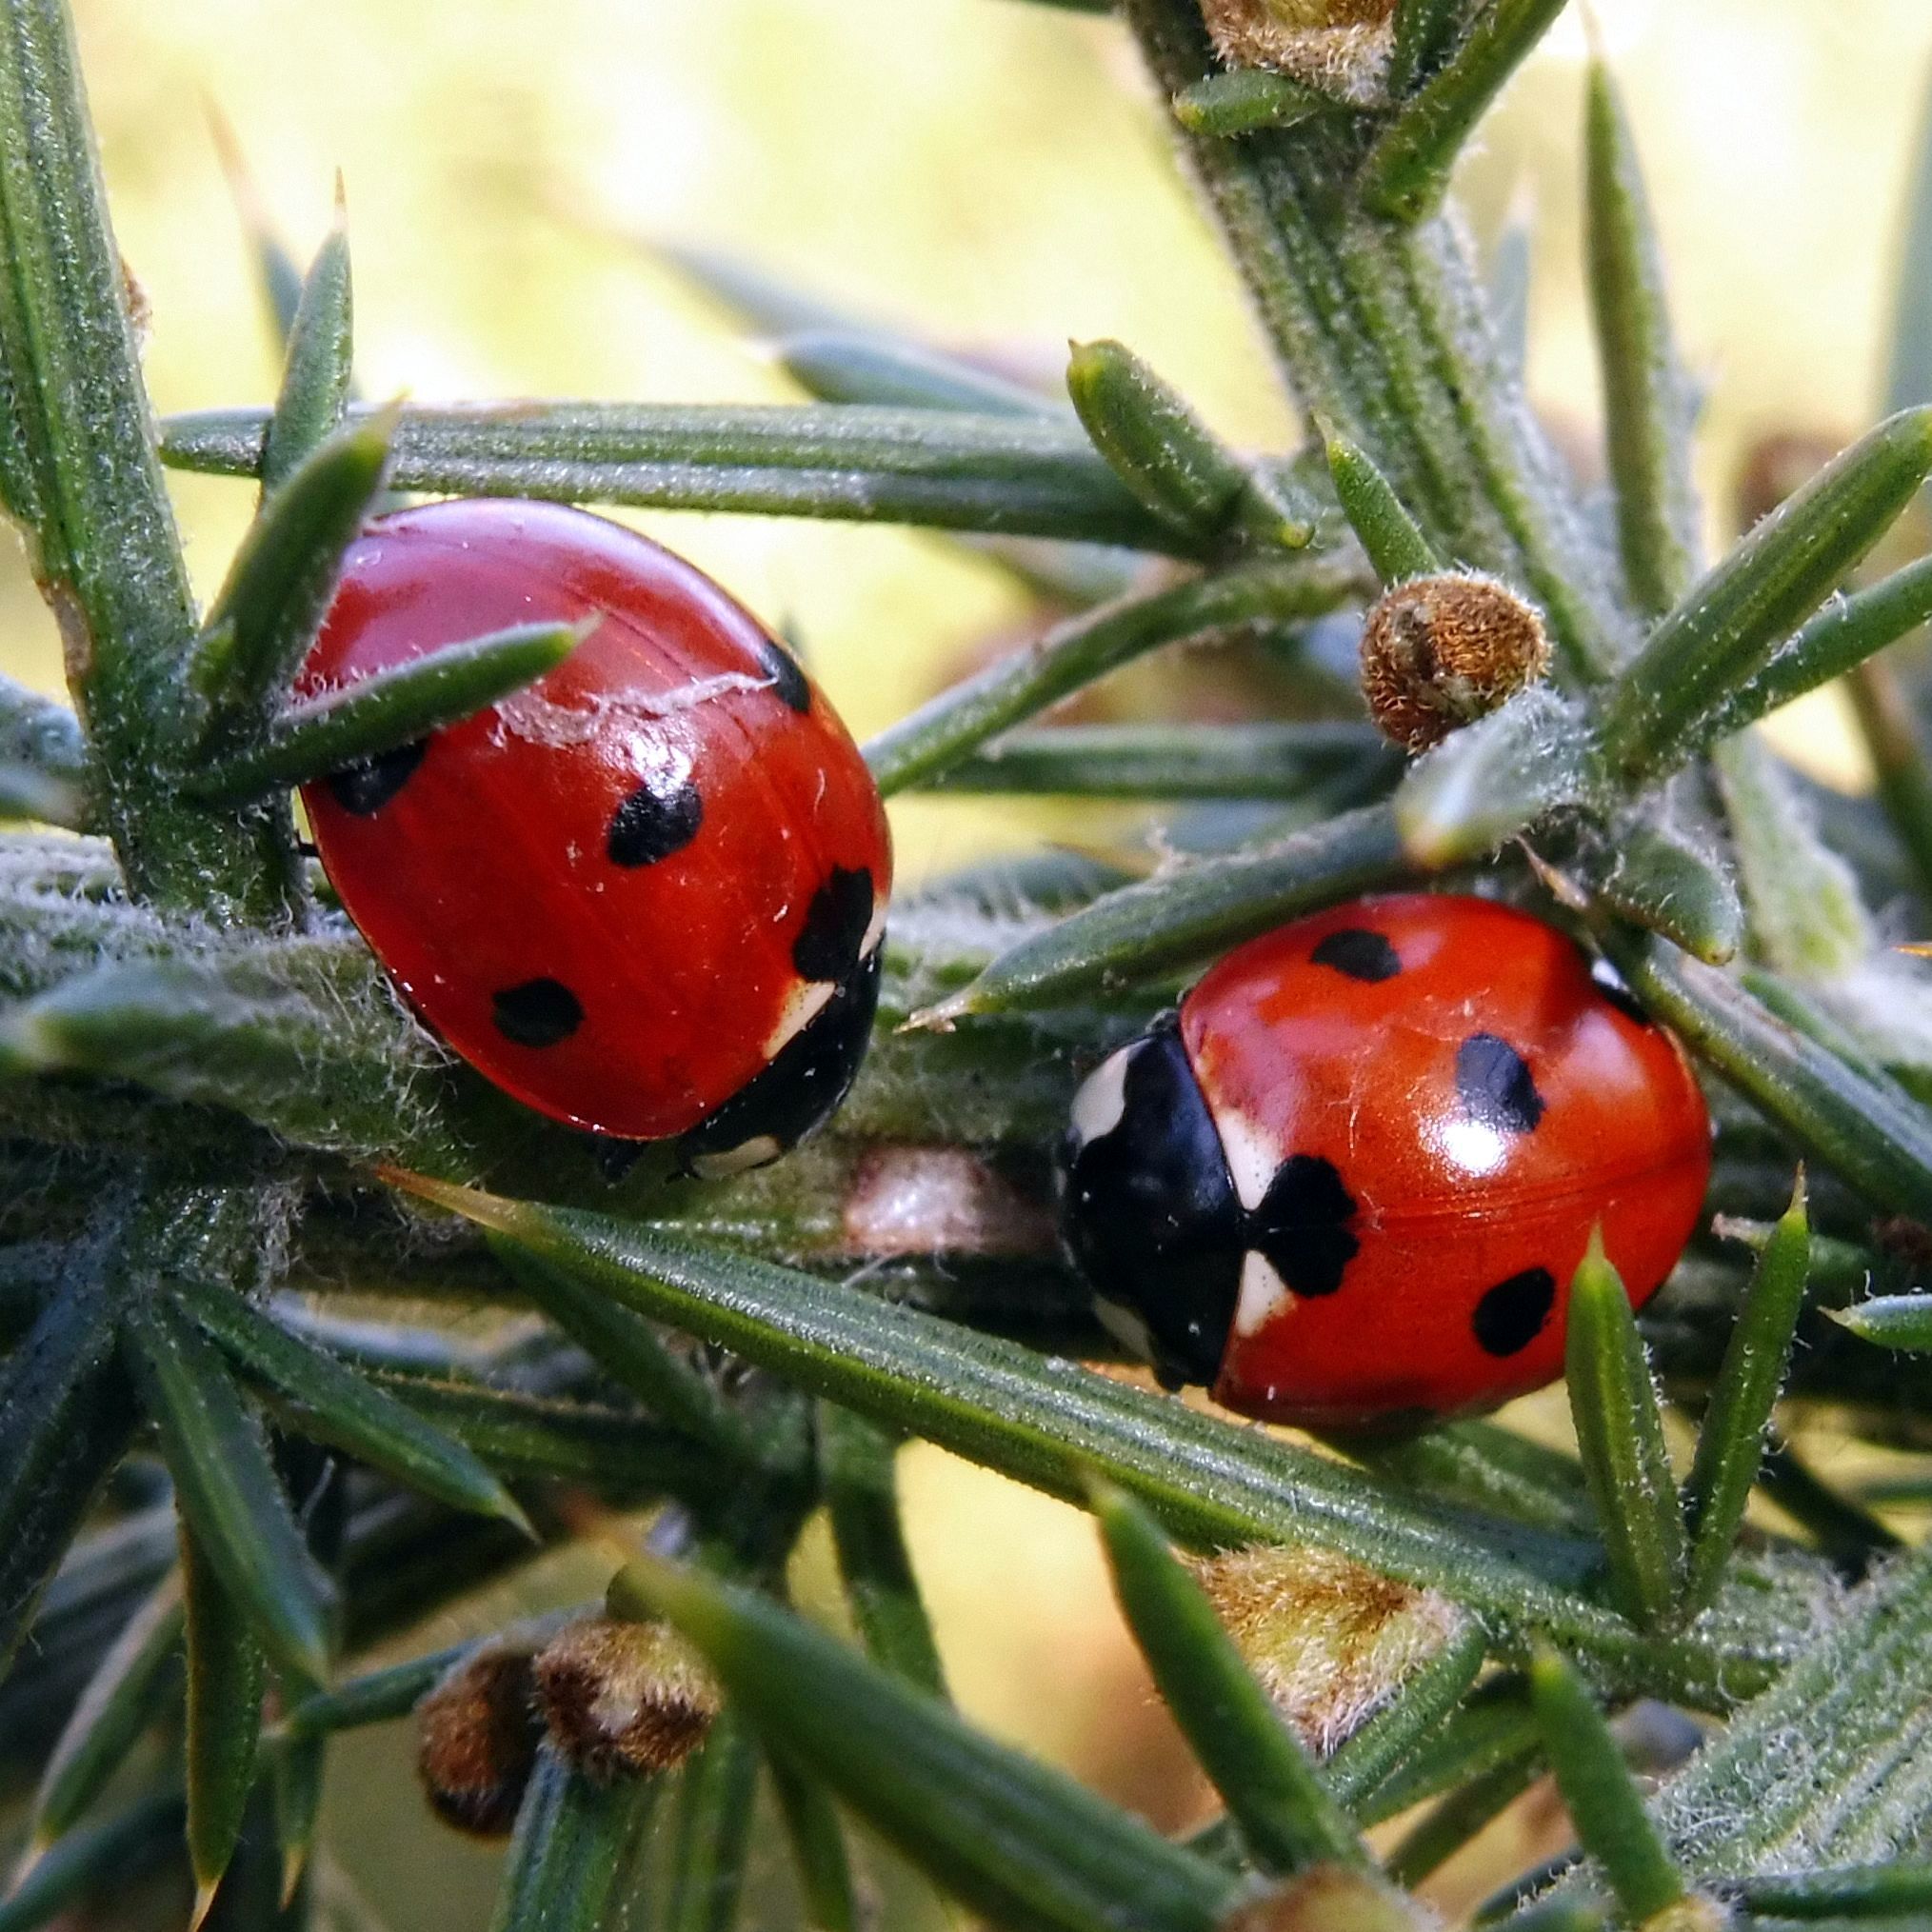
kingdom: Animalia
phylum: Arthropoda
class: Insecta
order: Coleoptera
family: Coccinellidae
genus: Coccinella
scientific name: Coccinella septempunctata
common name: Sevenspotted lady beetle
